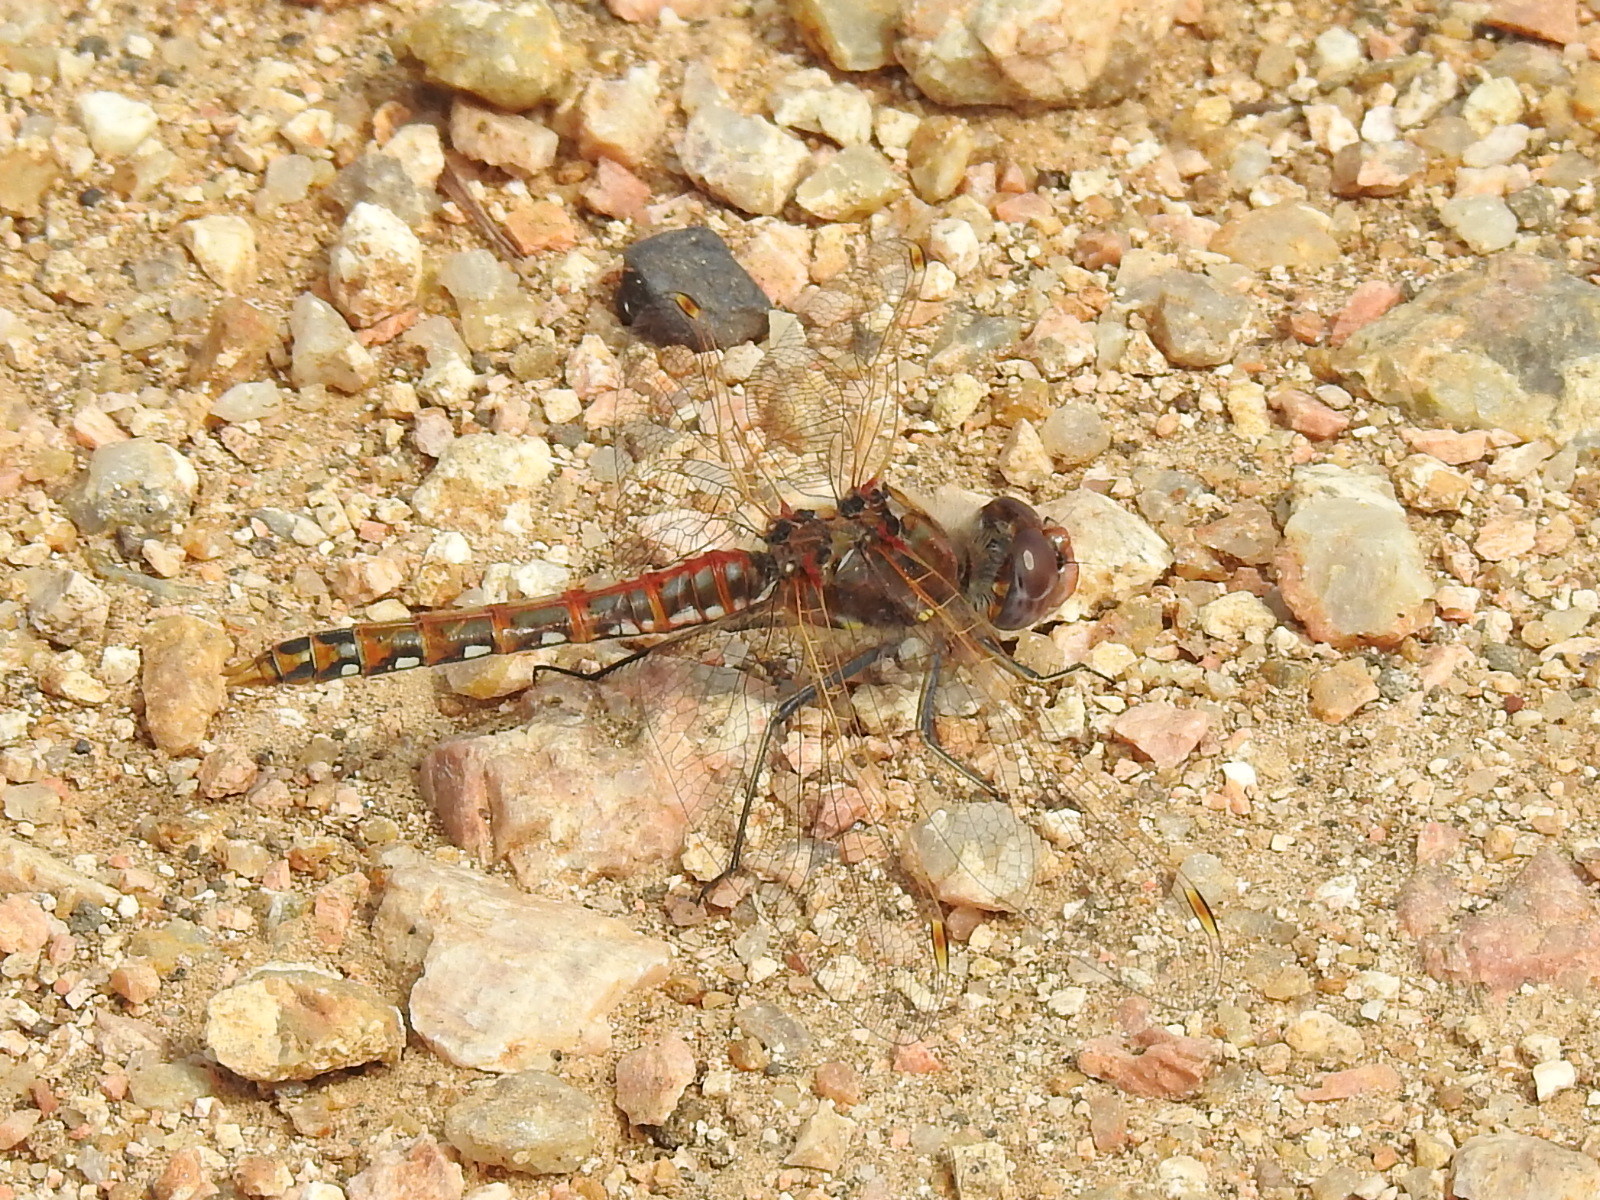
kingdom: Animalia
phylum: Arthropoda
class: Insecta
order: Odonata
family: Libellulidae
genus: Sympetrum
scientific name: Sympetrum corruptum
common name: Variegated meadowhawk
